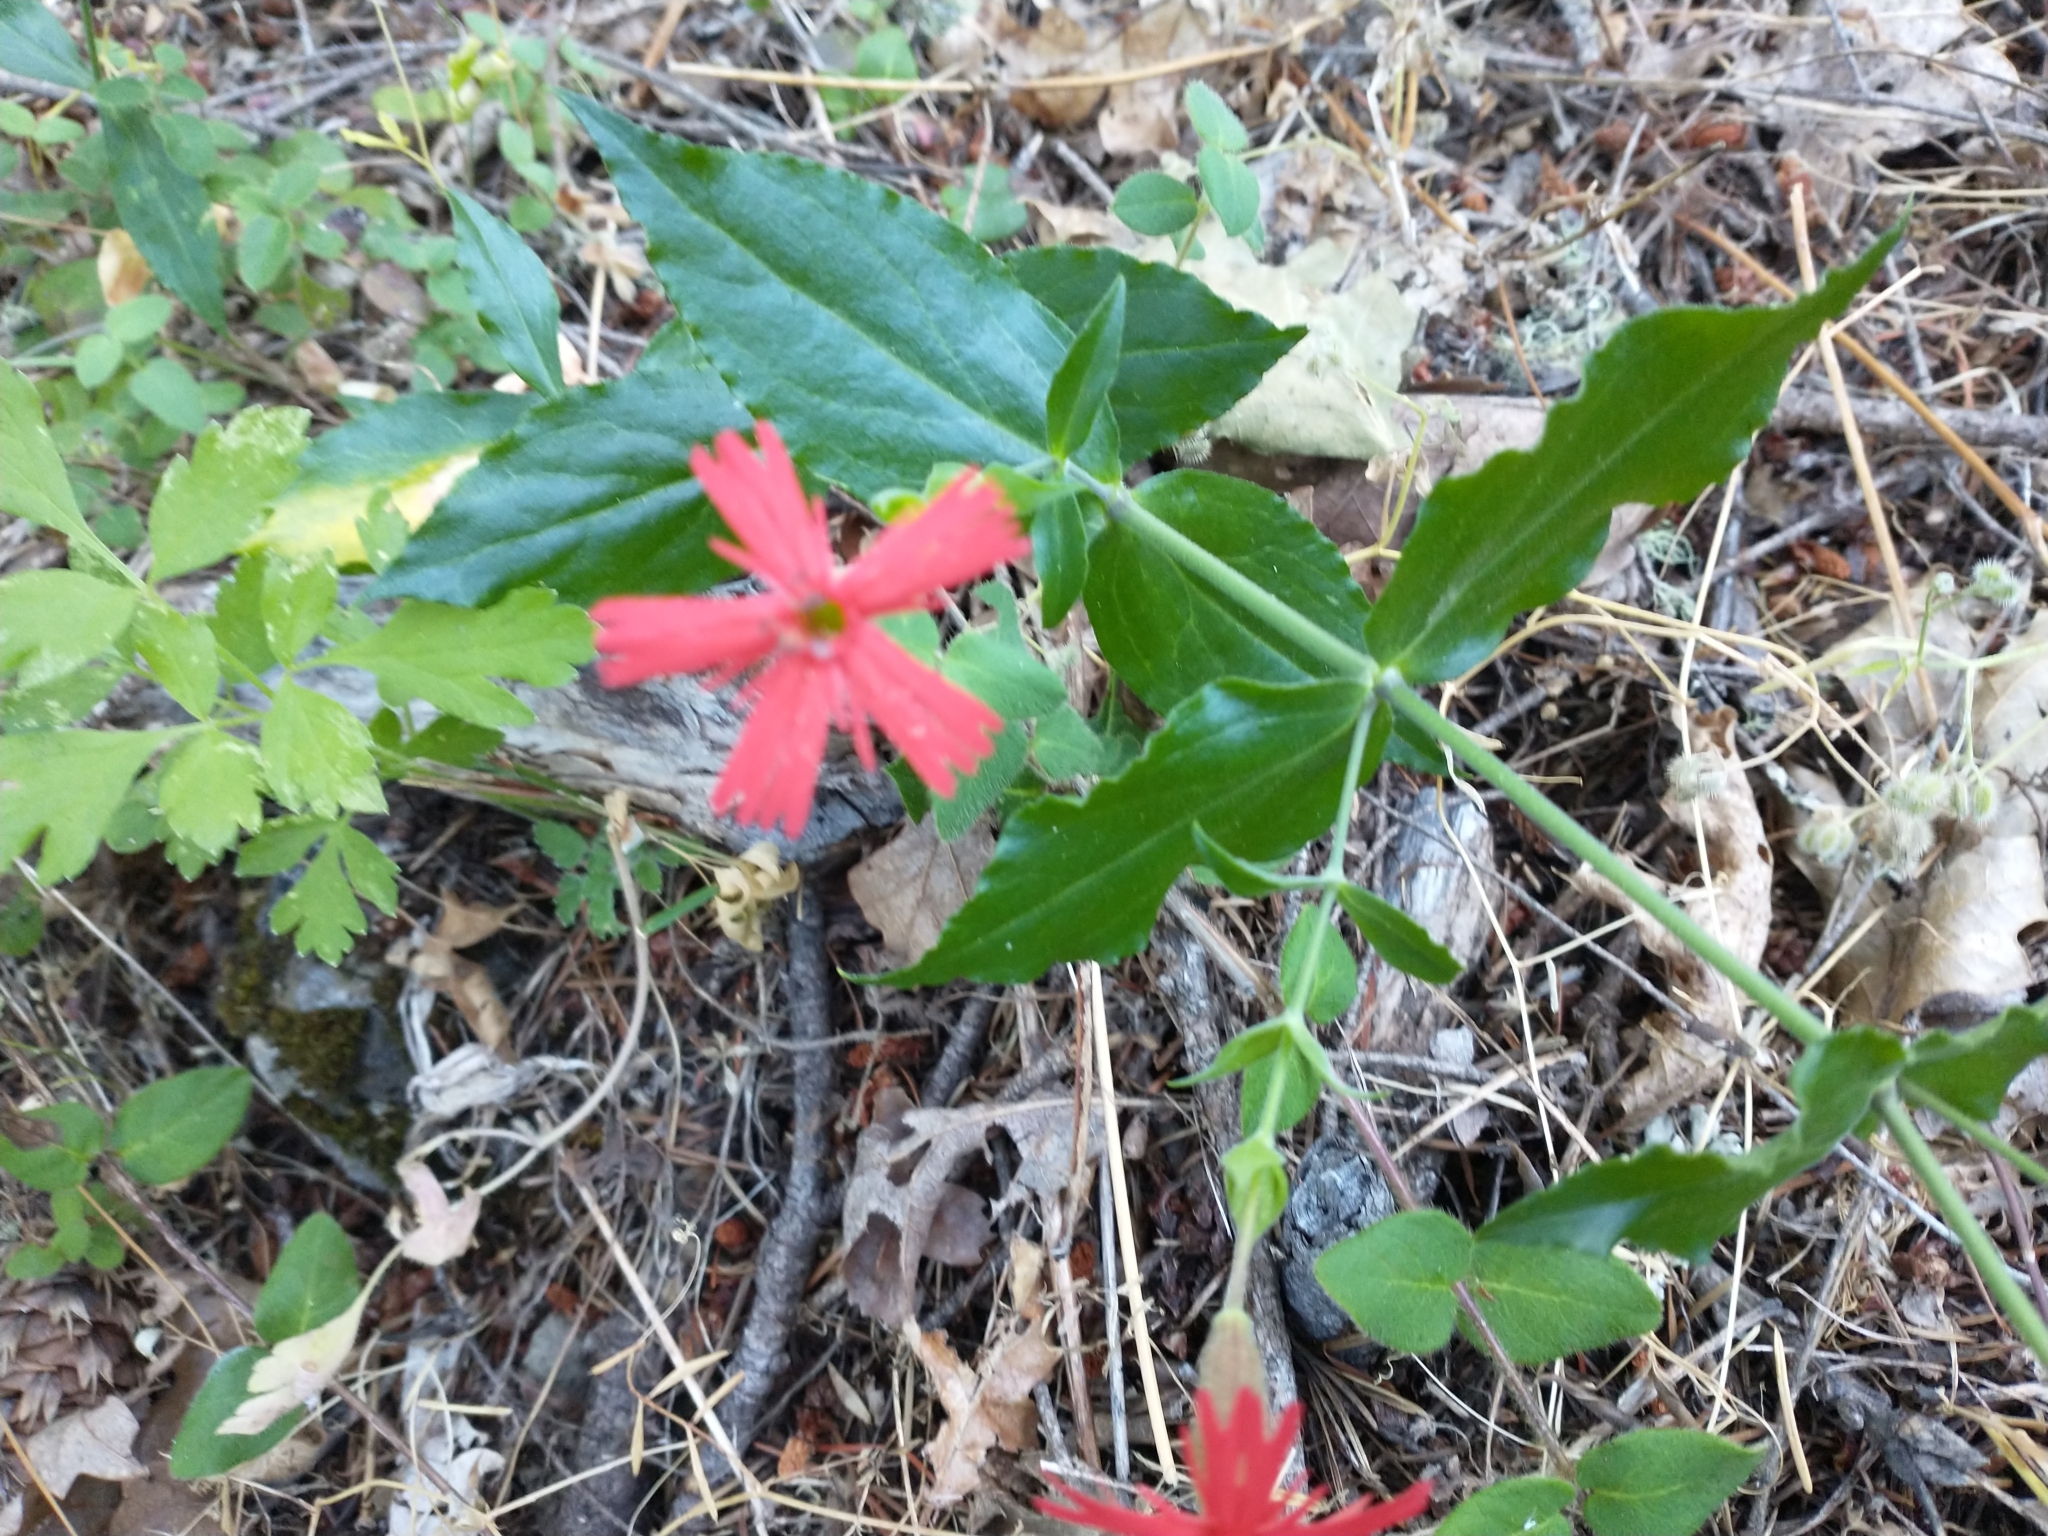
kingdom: Plantae
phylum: Tracheophyta
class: Magnoliopsida
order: Caryophyllales
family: Caryophyllaceae
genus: Silene
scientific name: Silene laciniata
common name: Indian-pink
